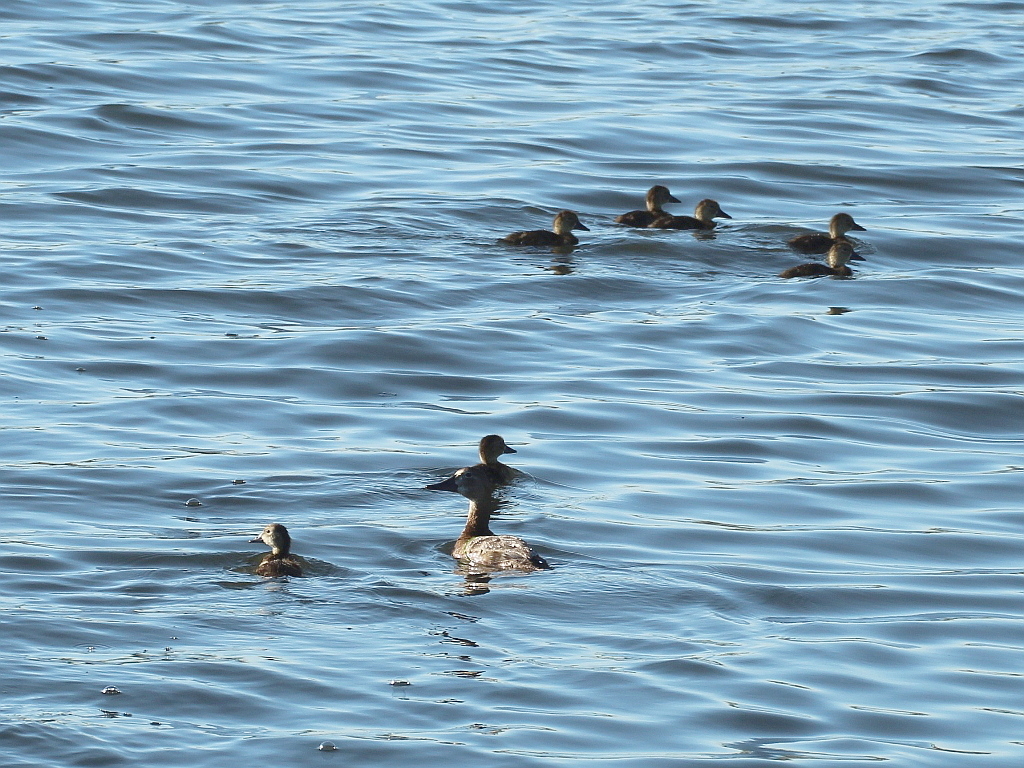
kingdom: Animalia
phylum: Chordata
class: Aves
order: Anseriformes
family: Anatidae
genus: Aythya
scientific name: Aythya ferina
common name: Common pochard
